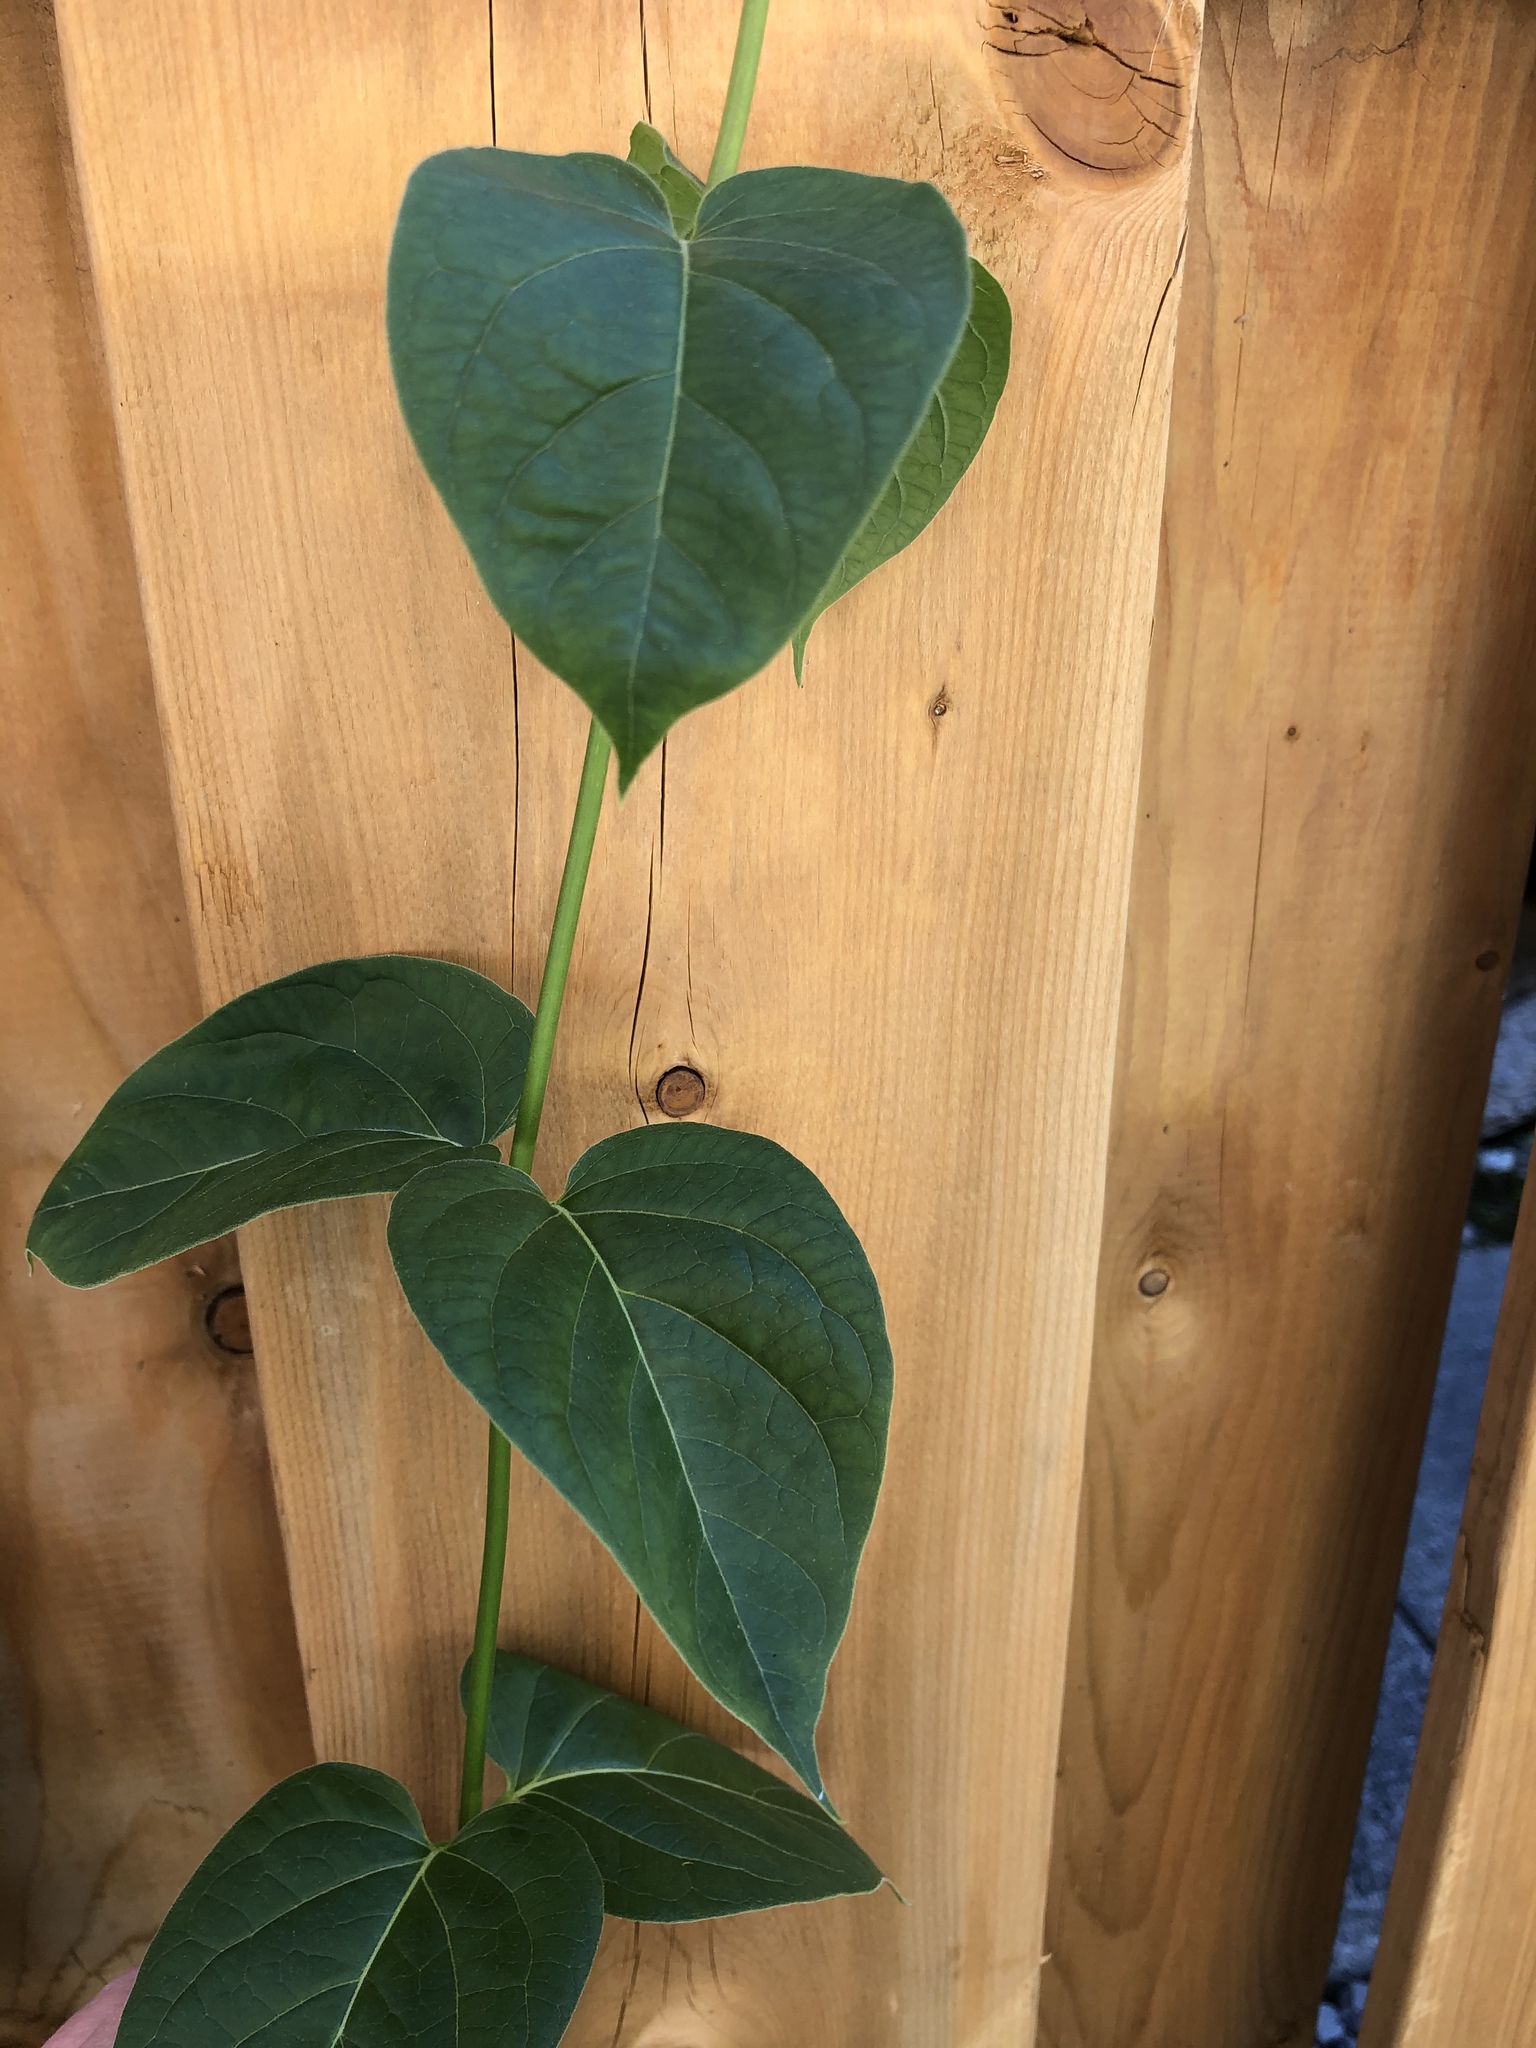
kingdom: Plantae
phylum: Tracheophyta
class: Magnoliopsida
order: Gentianales
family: Apocynaceae
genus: Vincetoxicum
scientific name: Vincetoxicum rossicum
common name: Dog-strangling vine
